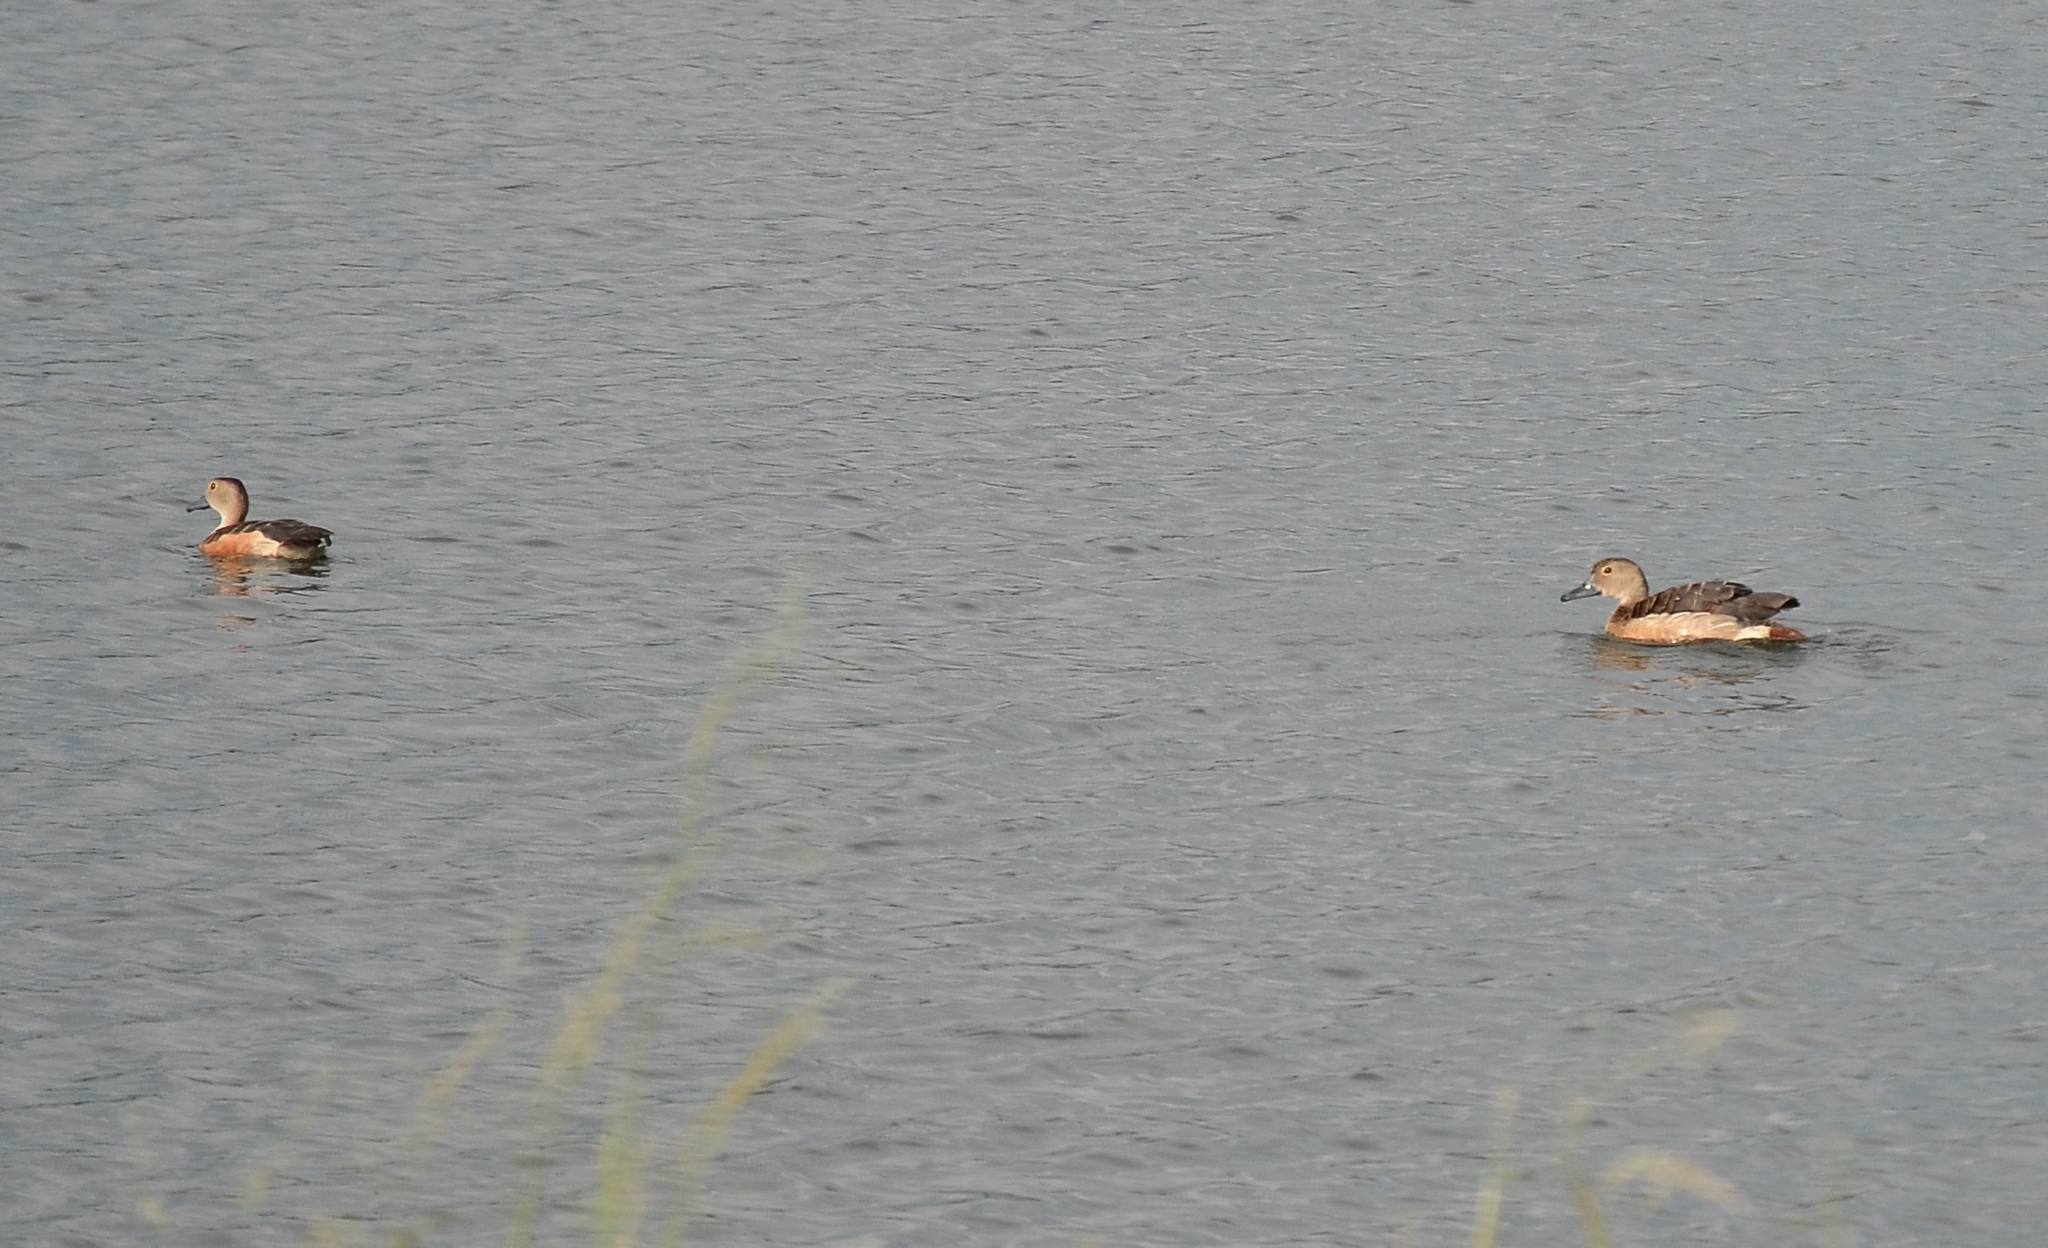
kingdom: Animalia
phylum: Chordata
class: Aves
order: Anseriformes
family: Anatidae
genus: Dendrocygna
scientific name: Dendrocygna javanica
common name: Lesser whistling-duck
